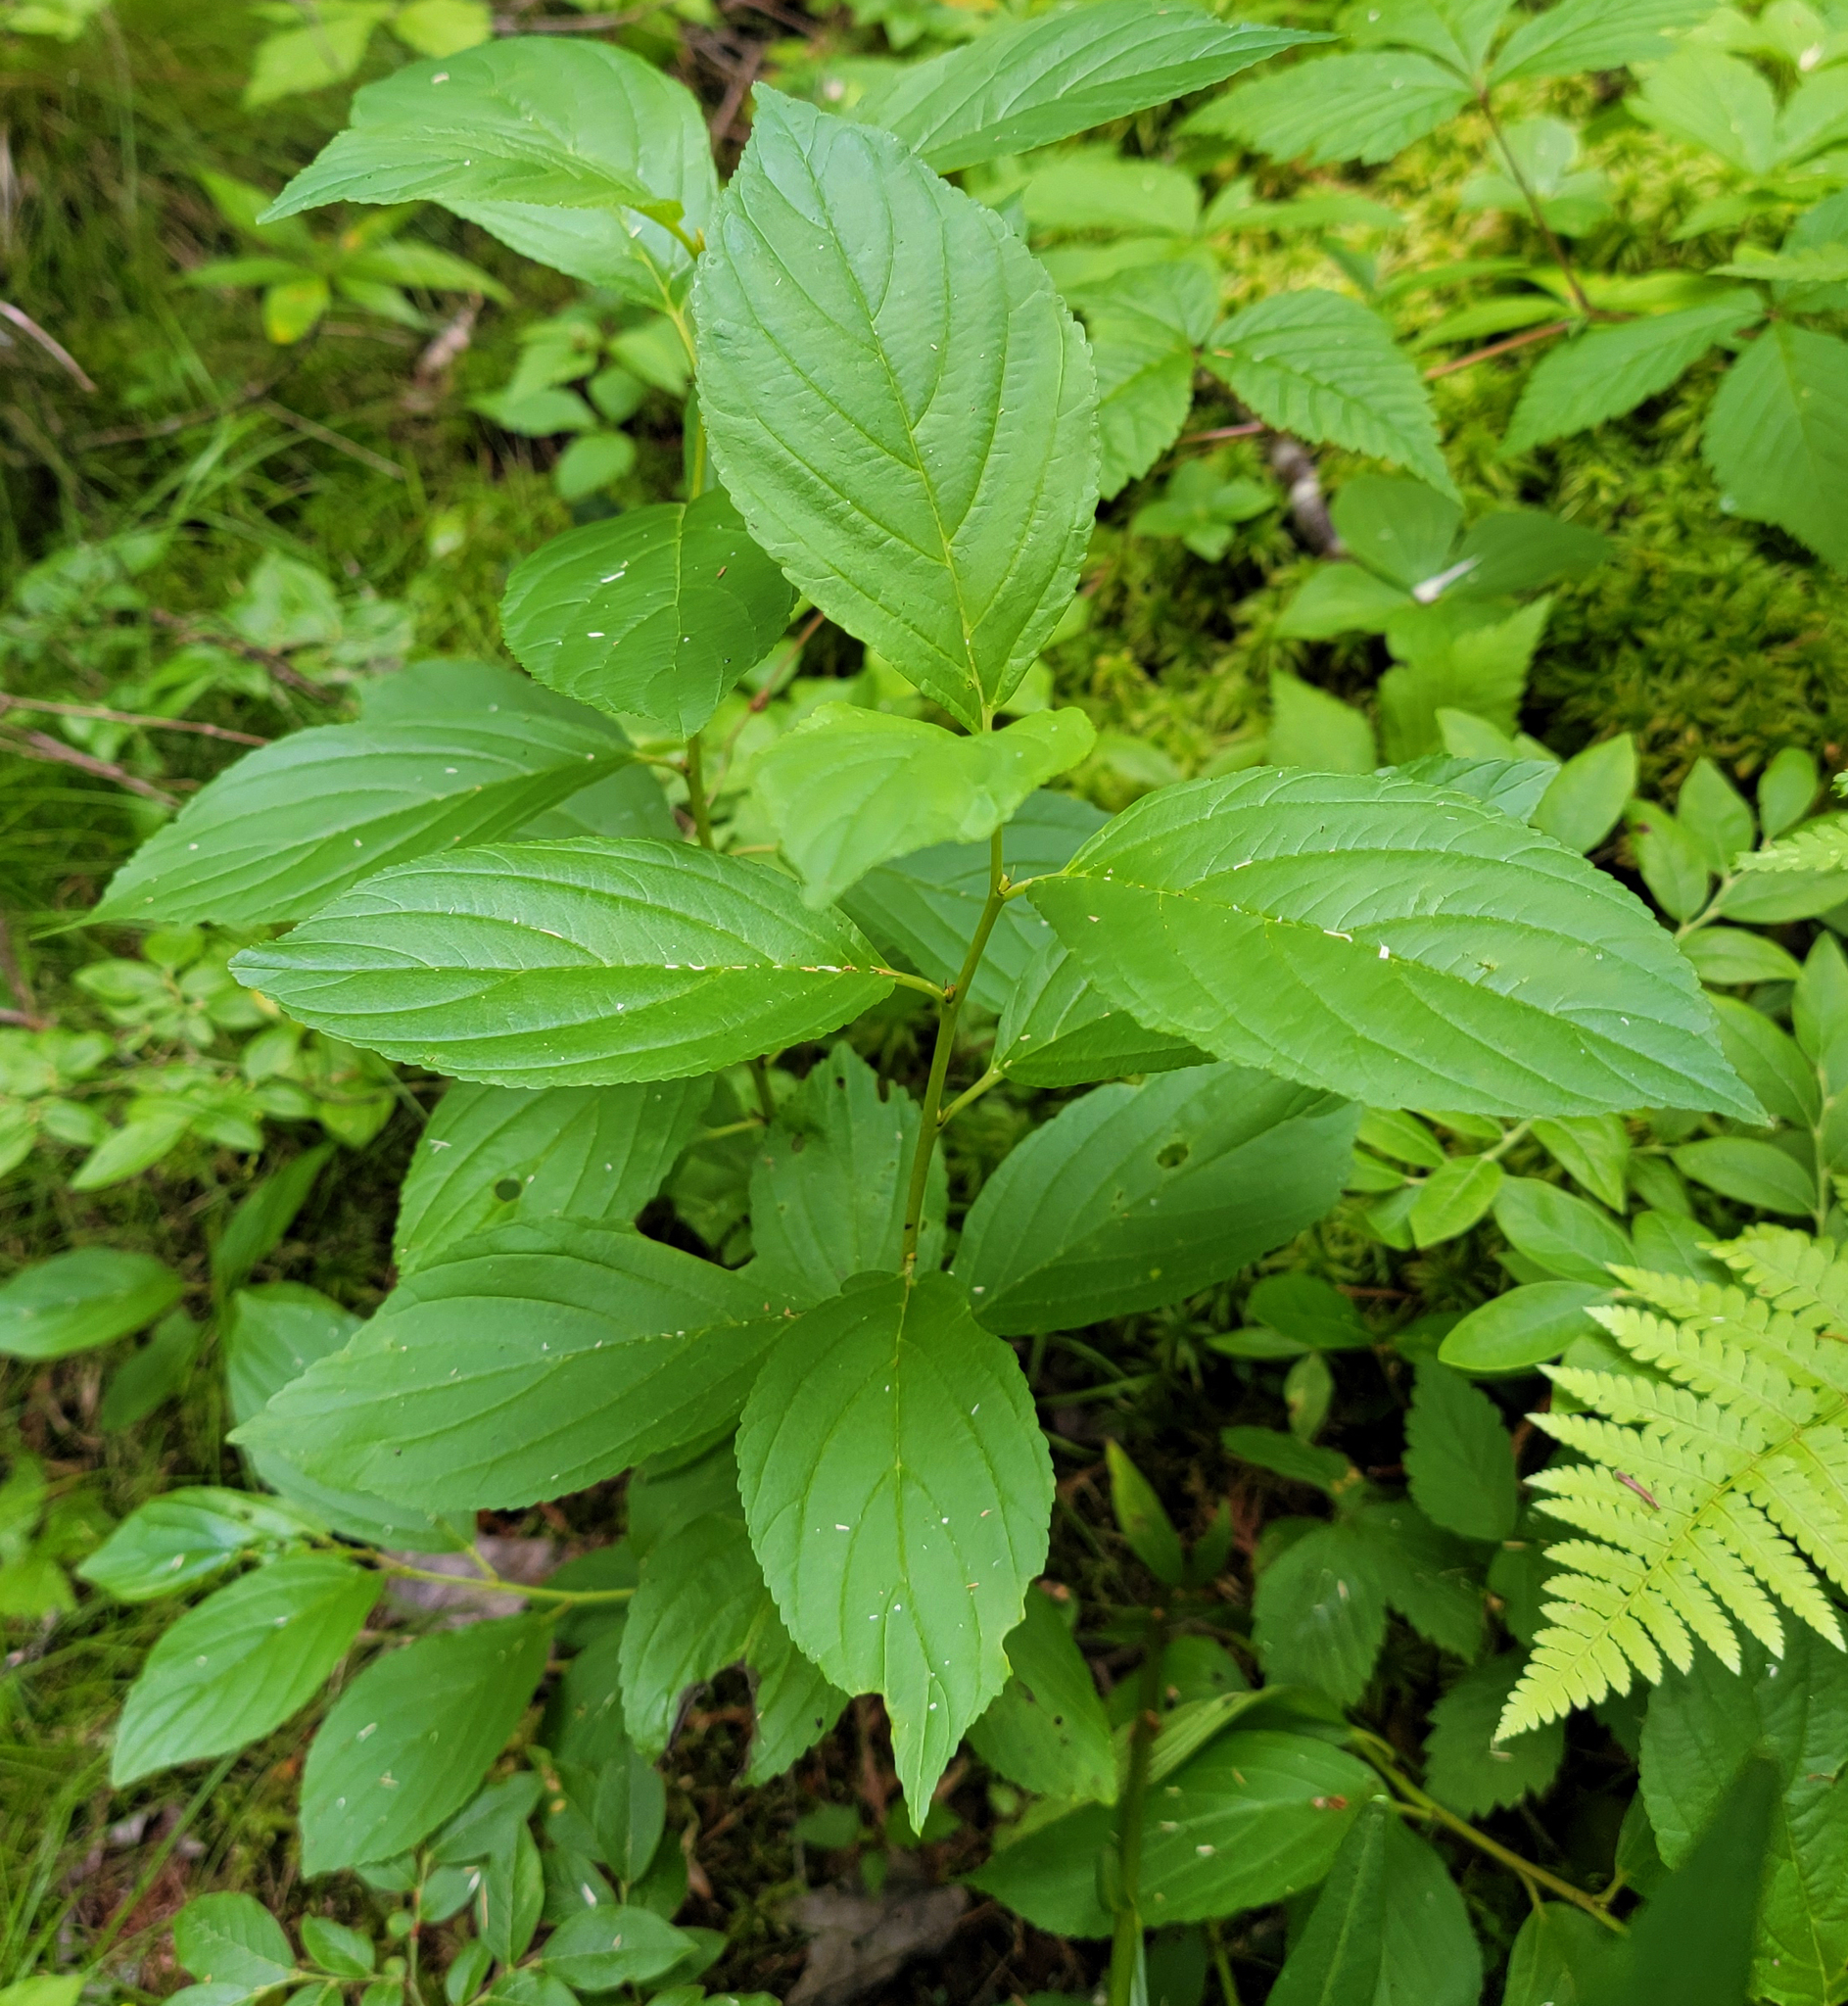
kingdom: Plantae
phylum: Tracheophyta
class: Magnoliopsida
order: Rosales
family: Rhamnaceae
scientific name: Rhamnaceae
